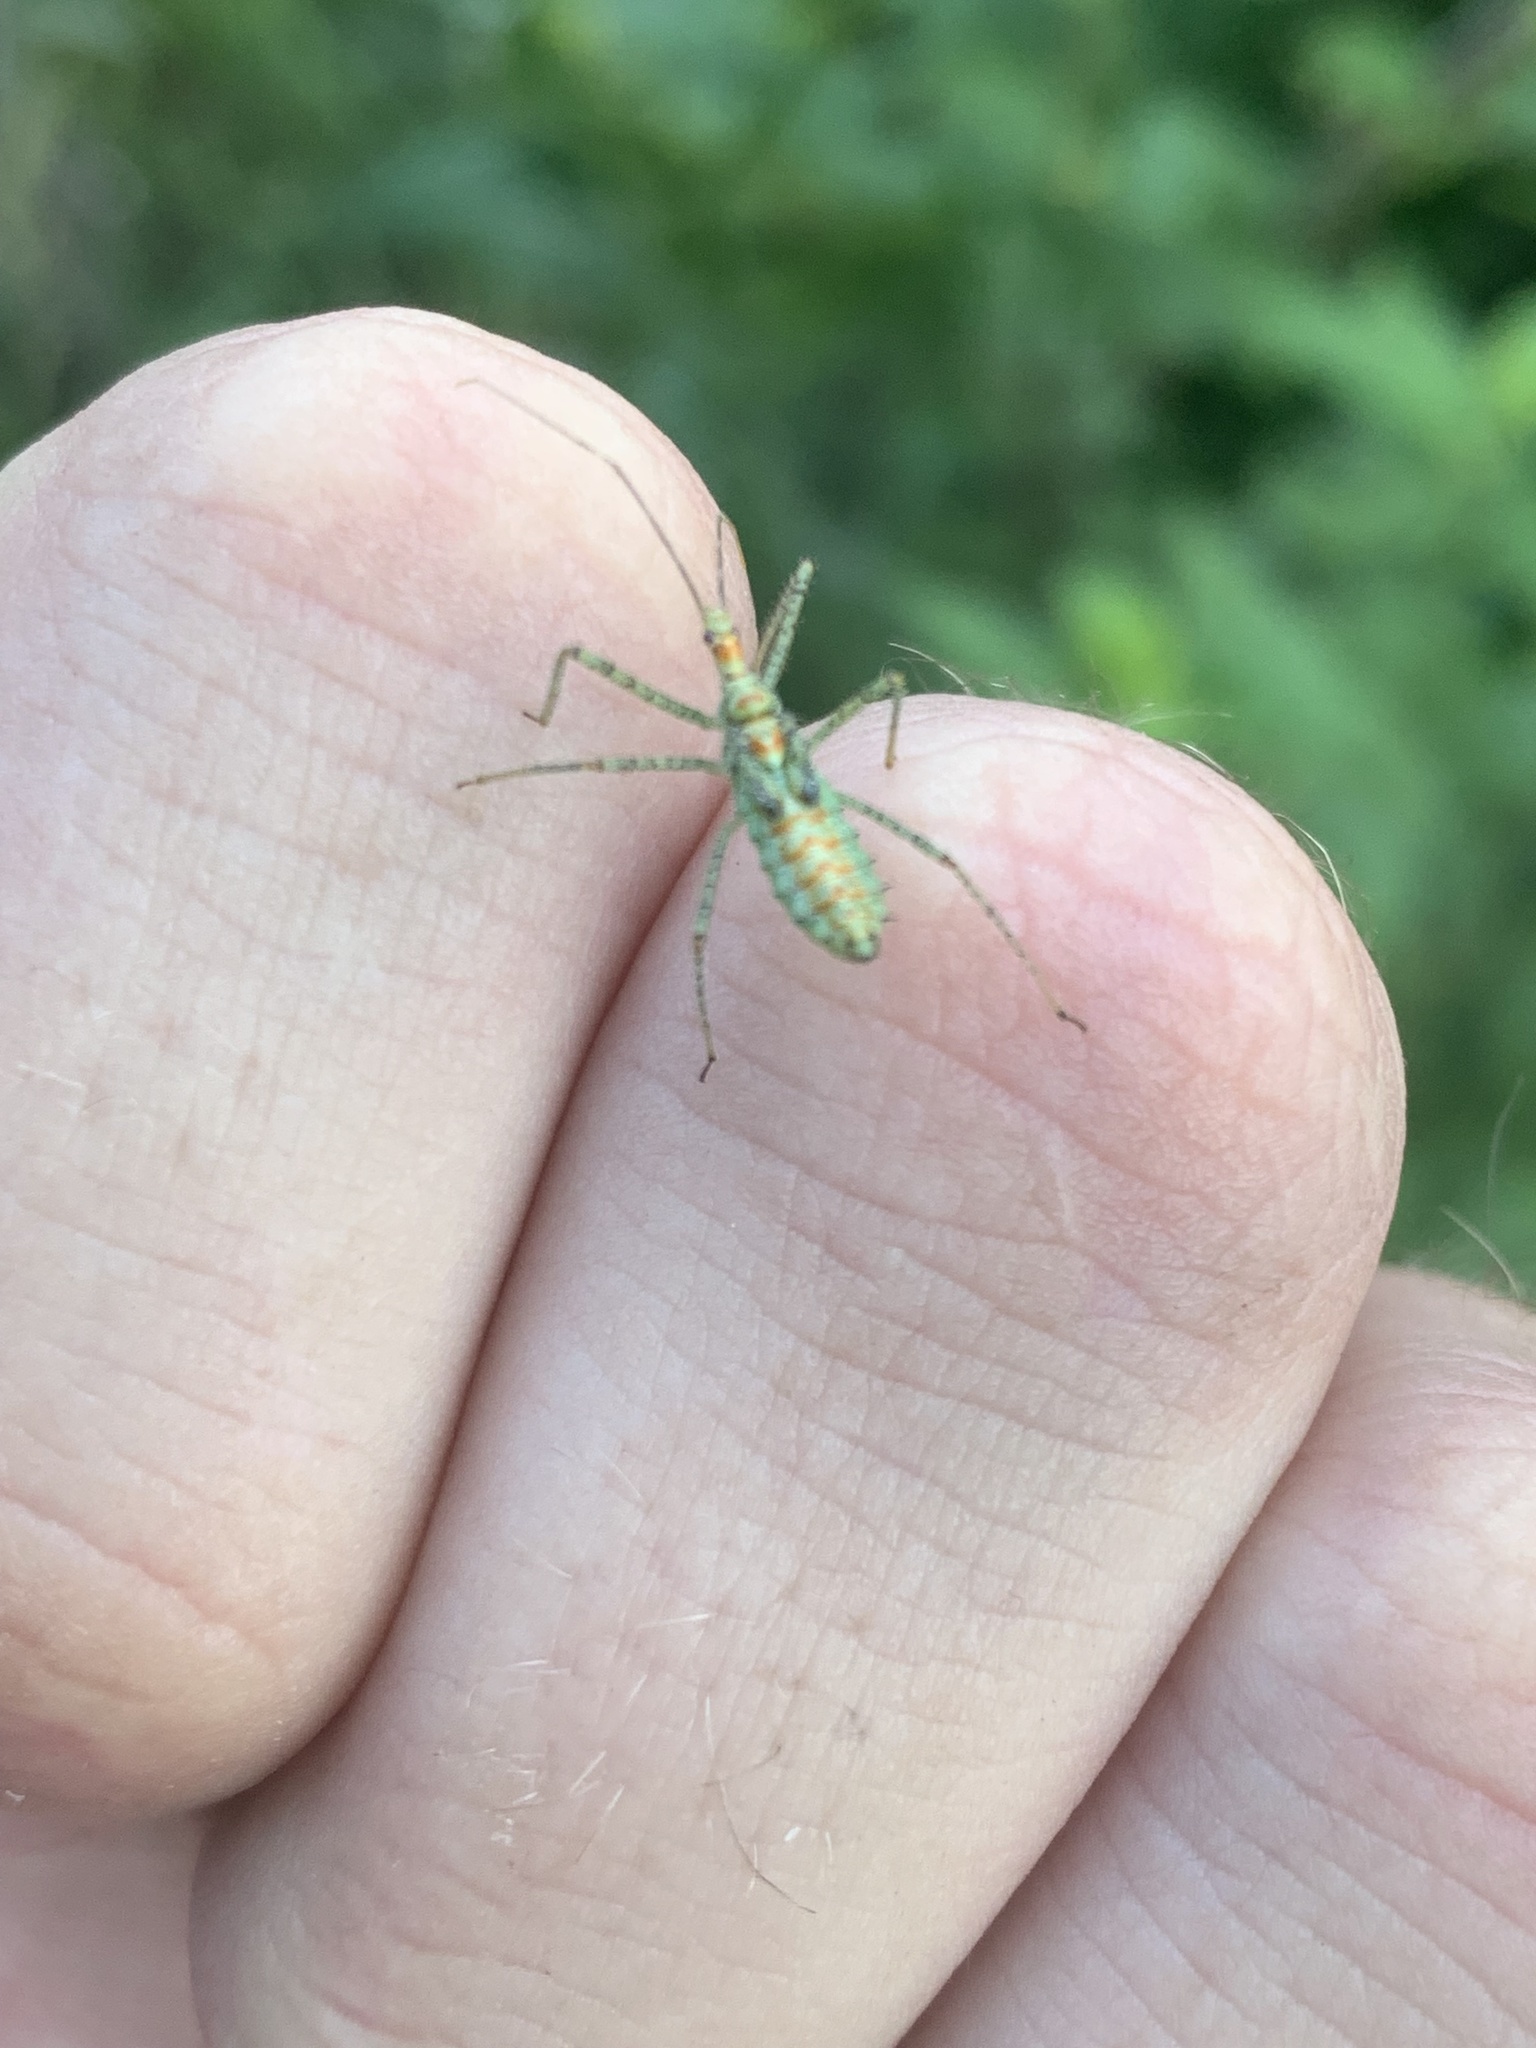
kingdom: Animalia
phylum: Arthropoda
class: Insecta
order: Hemiptera
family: Reduviidae
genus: Zelus
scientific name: Zelus renardii
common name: Assassin bug
